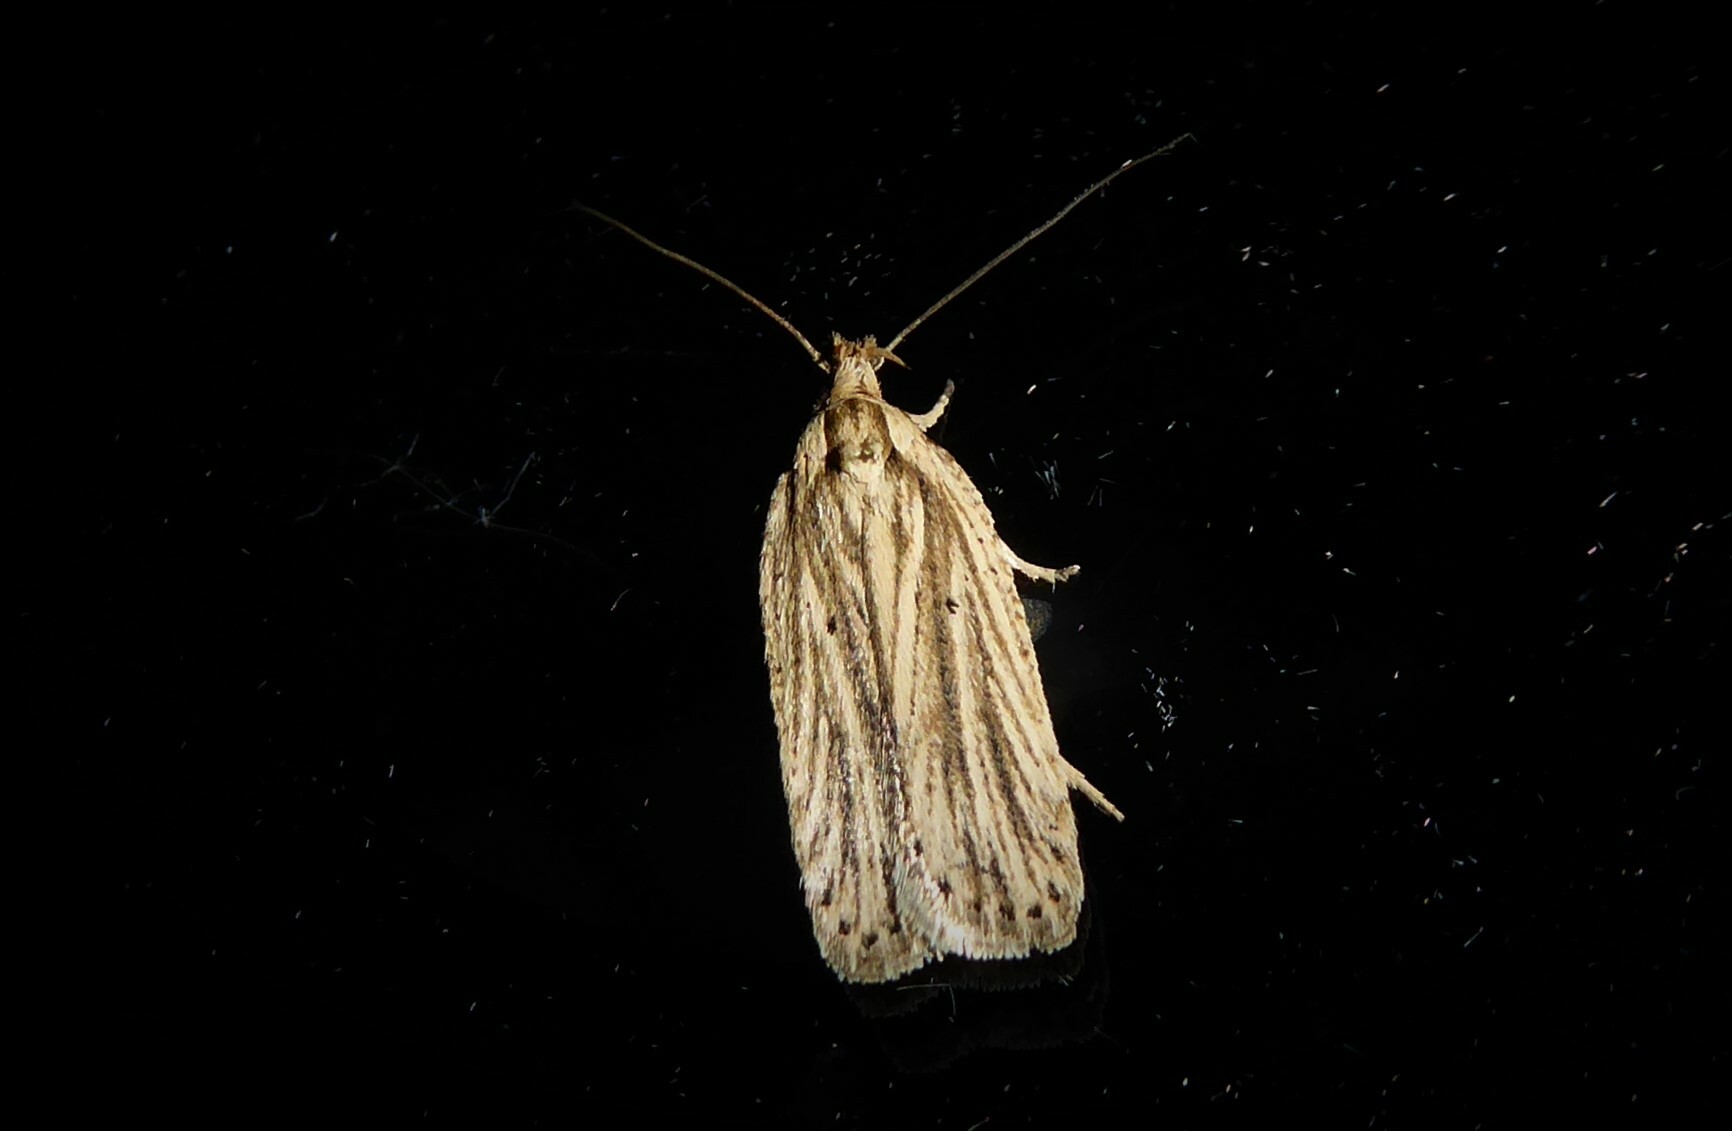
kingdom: Animalia
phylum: Arthropoda
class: Insecta
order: Lepidoptera
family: Depressariidae
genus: Agonopterix
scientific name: Agonopterix
